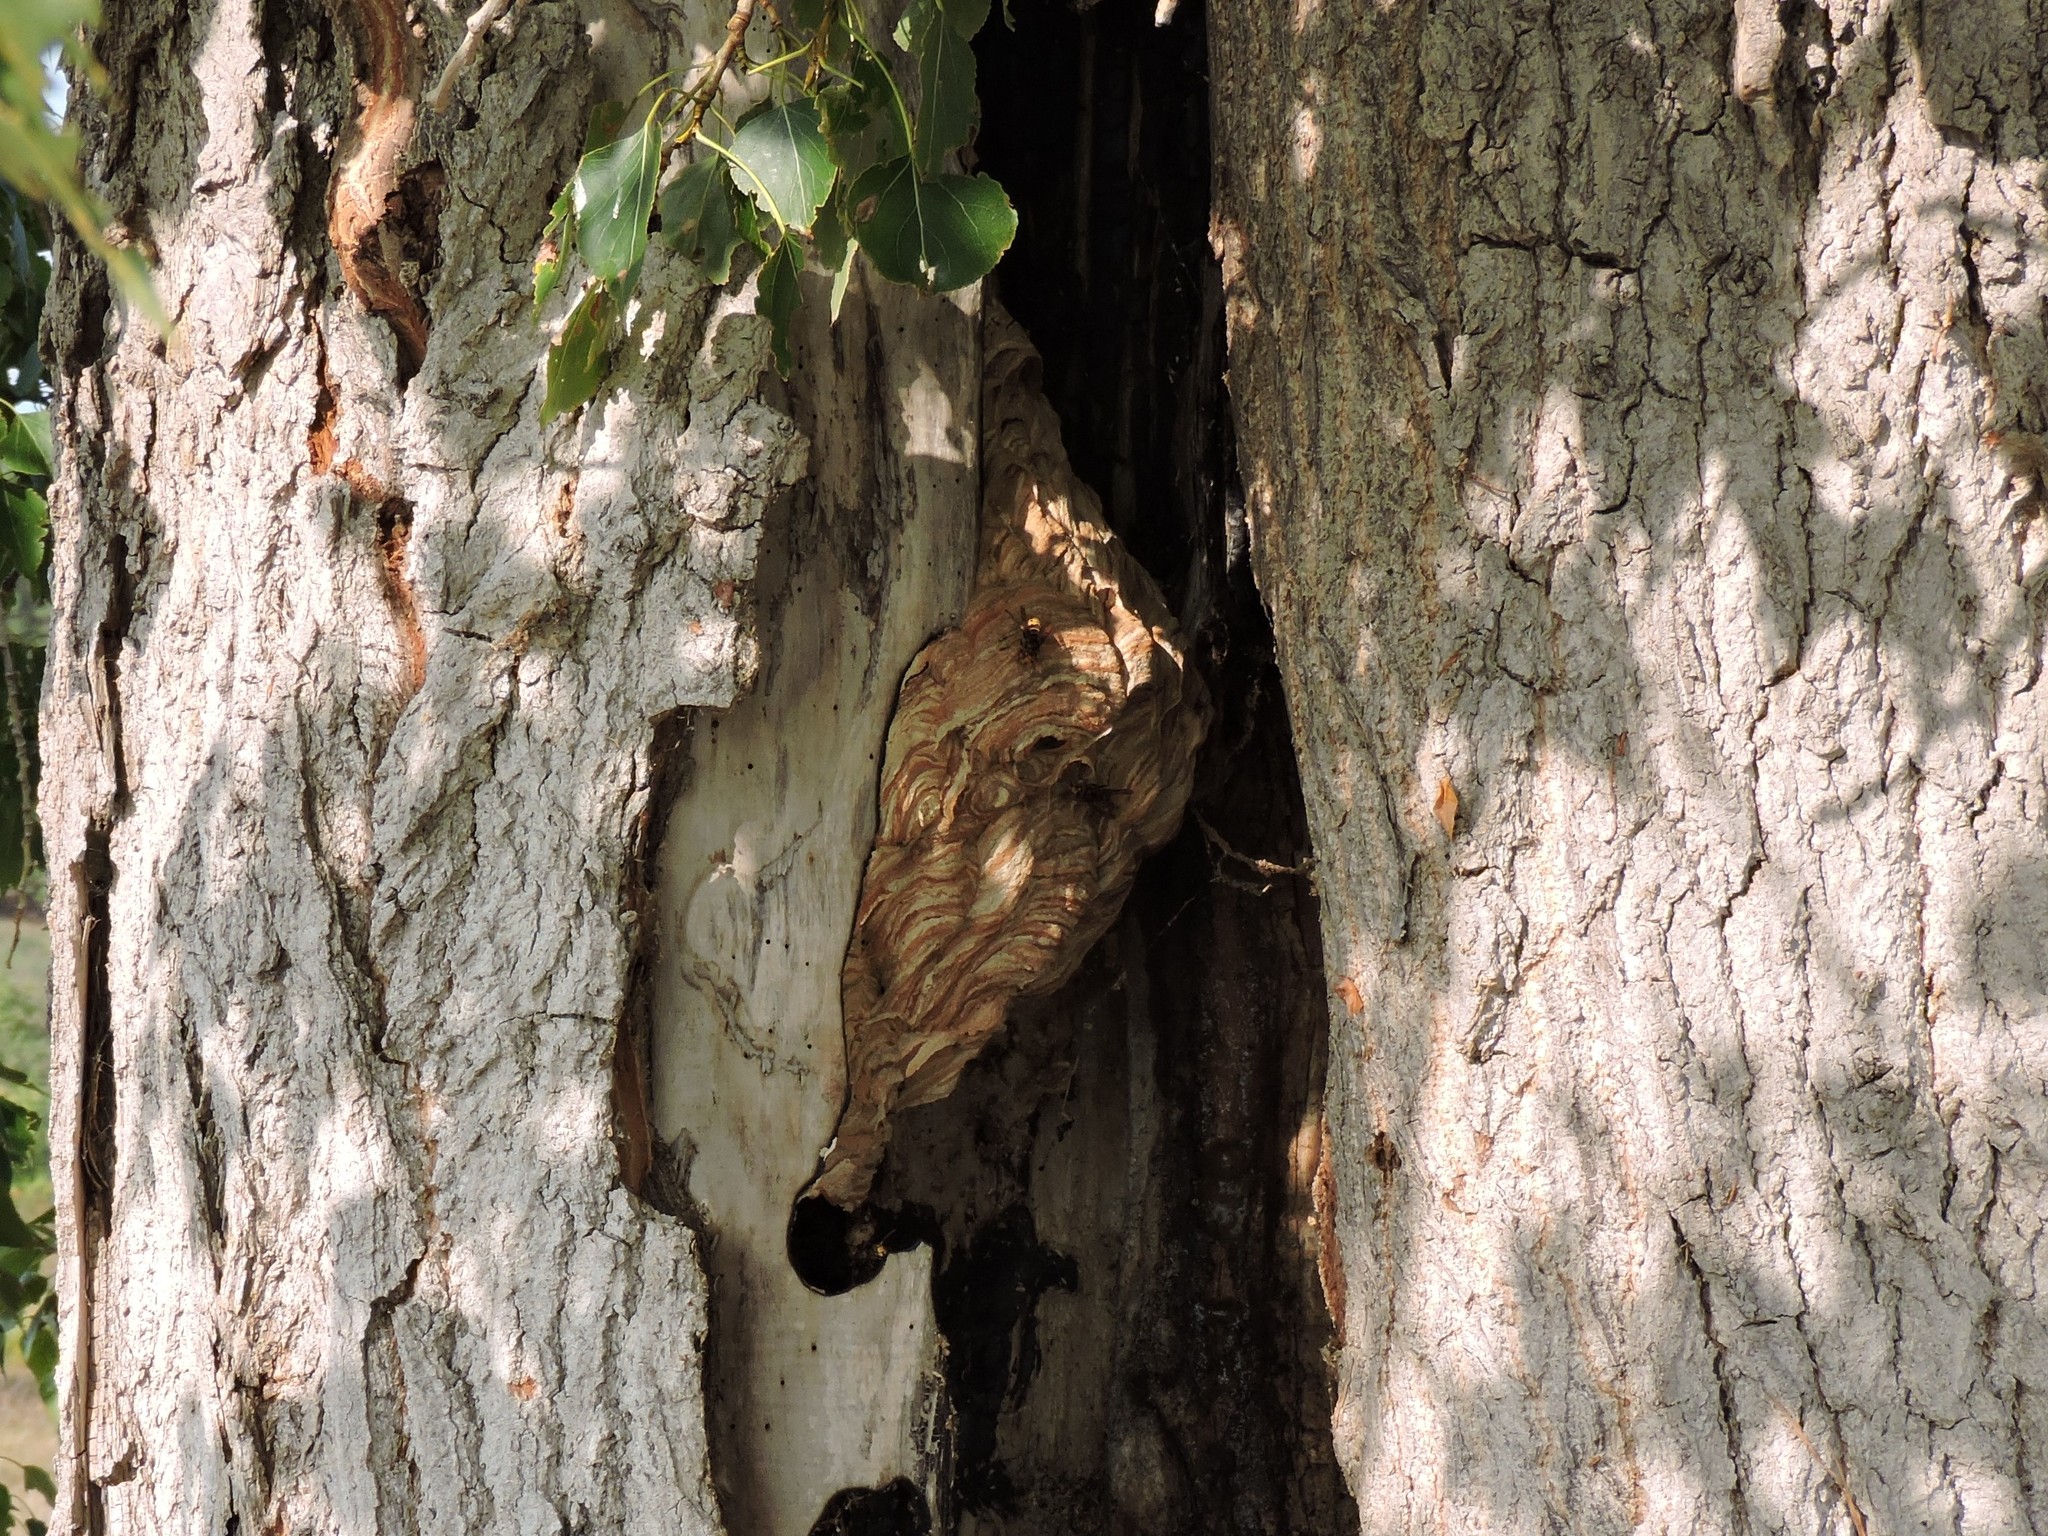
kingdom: Animalia
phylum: Arthropoda
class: Insecta
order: Hymenoptera
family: Vespidae
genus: Vespa
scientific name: Vespa crabro
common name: Hornet
